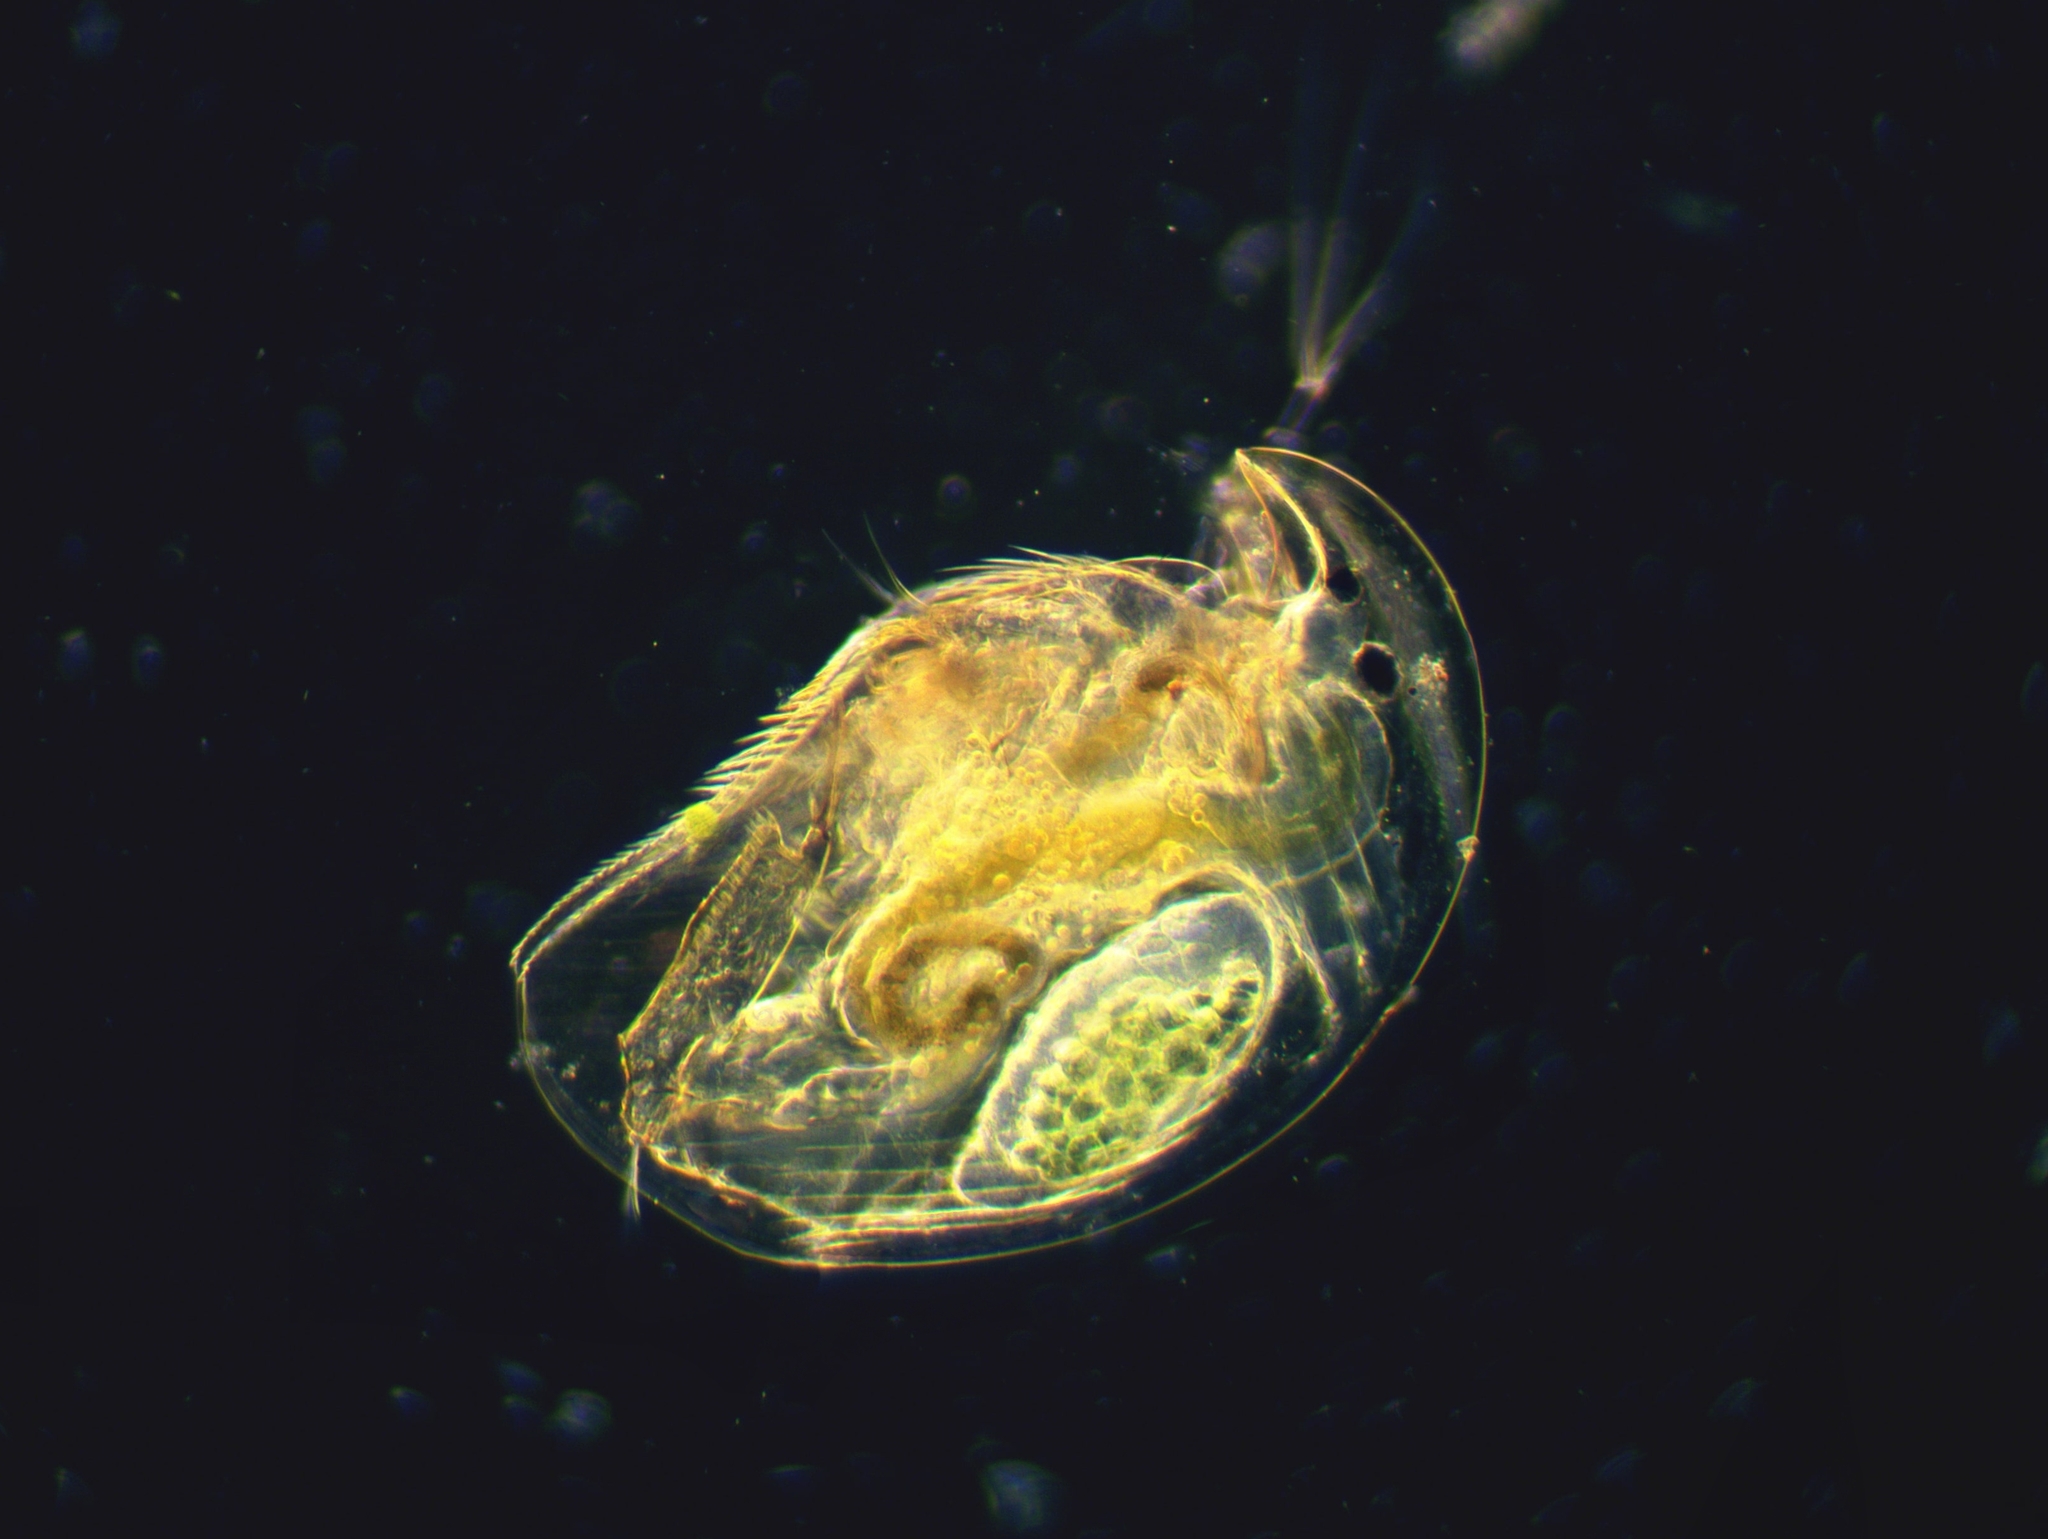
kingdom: Animalia
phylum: Arthropoda
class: Branchiopoda
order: Diplostraca
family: Chydoridae
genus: Acroperus
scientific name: Acroperus harpae
